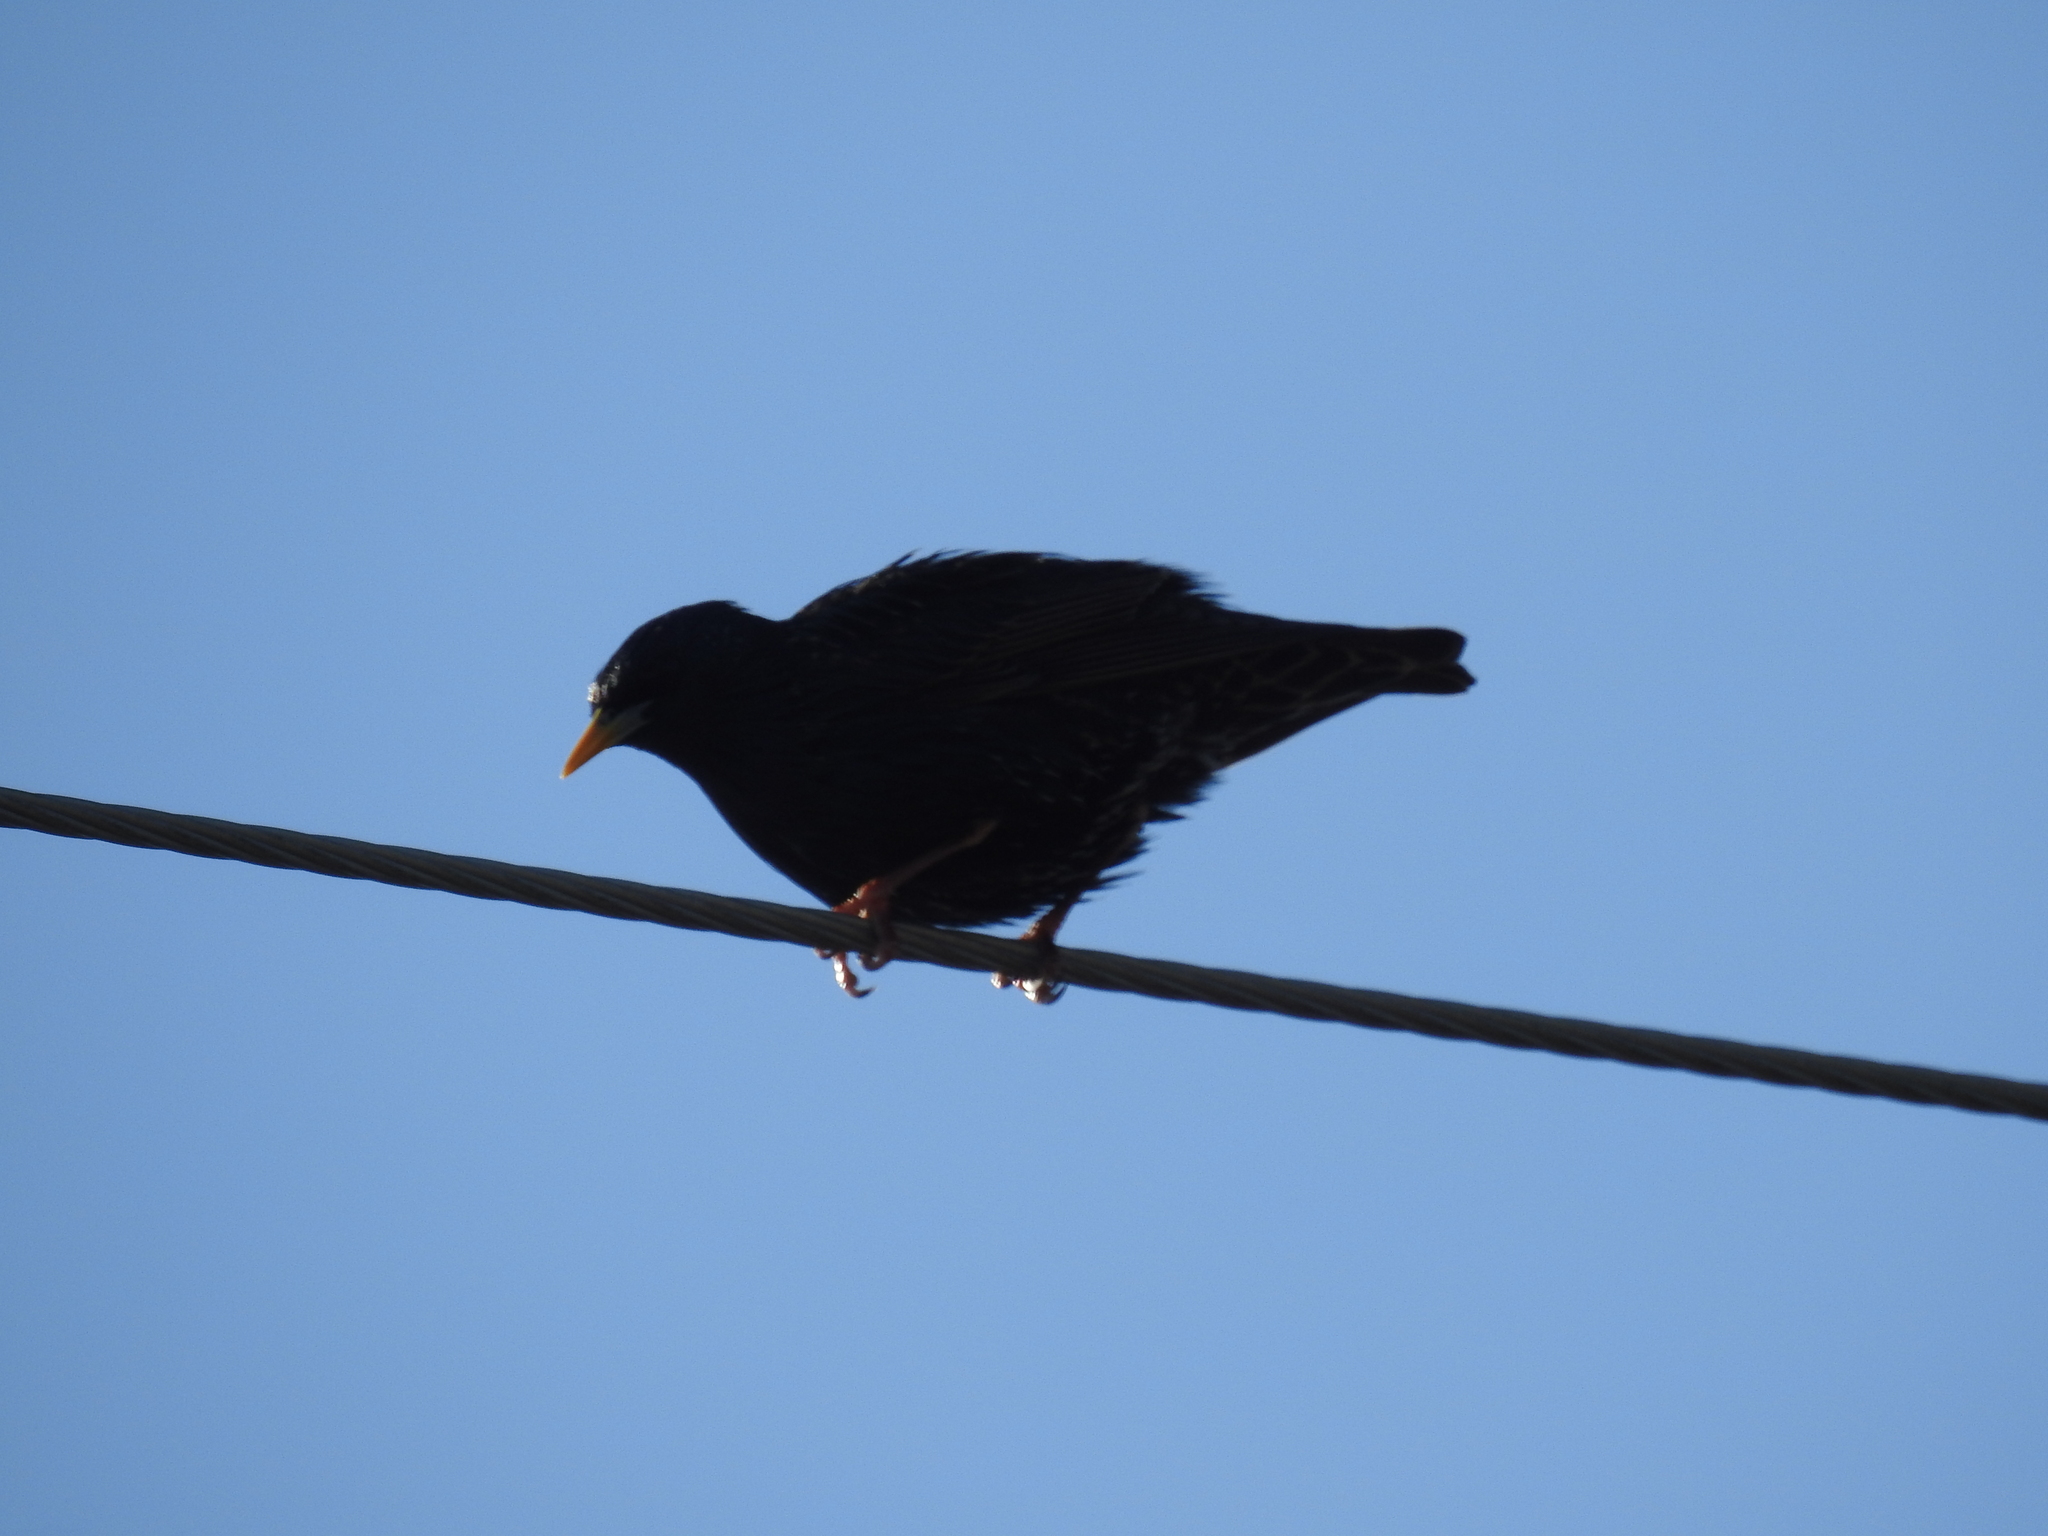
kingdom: Animalia
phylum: Chordata
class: Aves
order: Passeriformes
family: Sturnidae
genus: Sturnus
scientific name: Sturnus vulgaris
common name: Common starling
